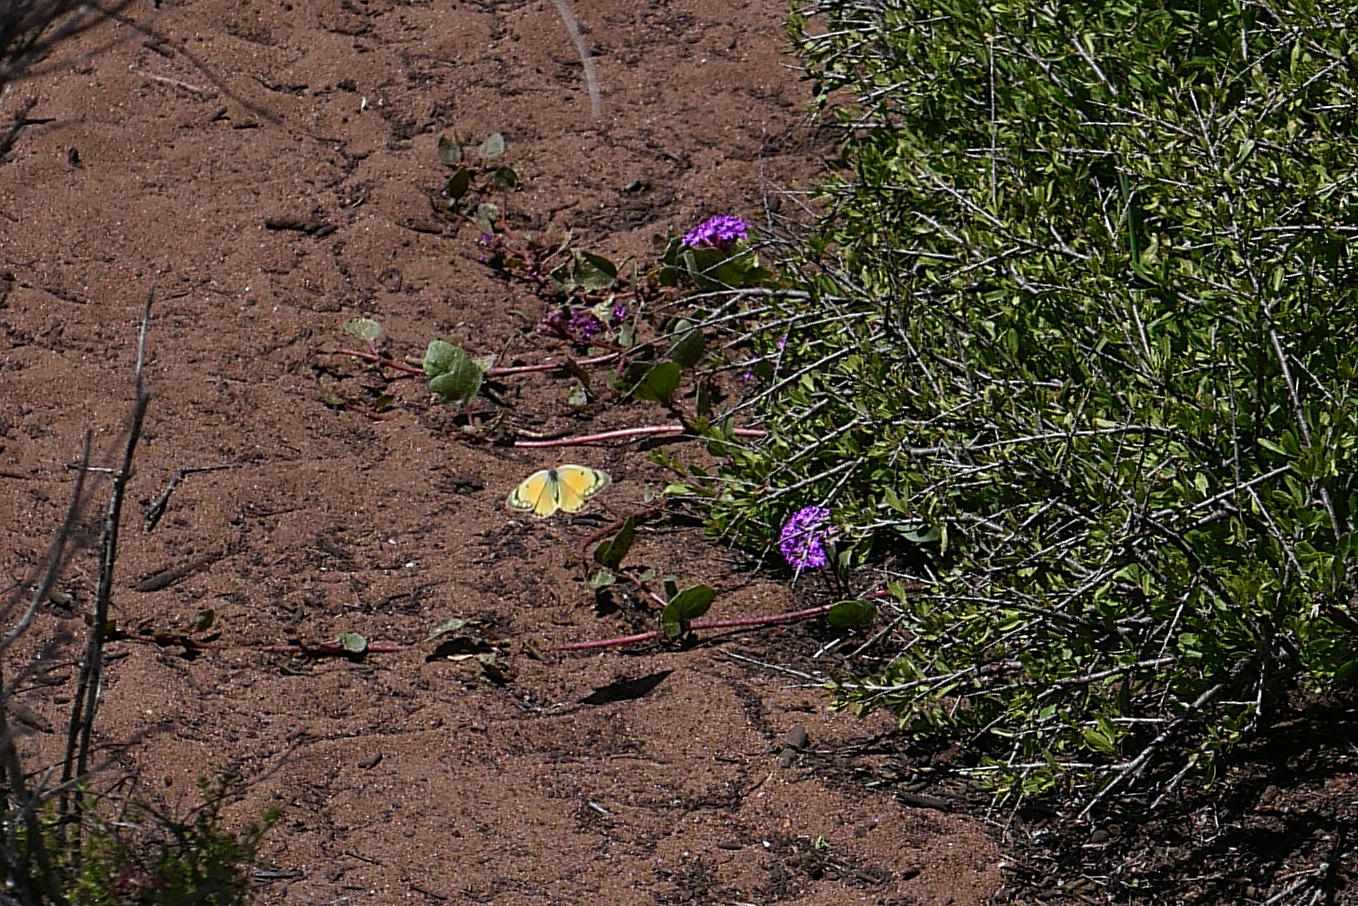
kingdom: Animalia
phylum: Arthropoda
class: Insecta
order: Lepidoptera
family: Pieridae
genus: Colias
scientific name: Colias eurytheme
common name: Alfalfa butterfly
